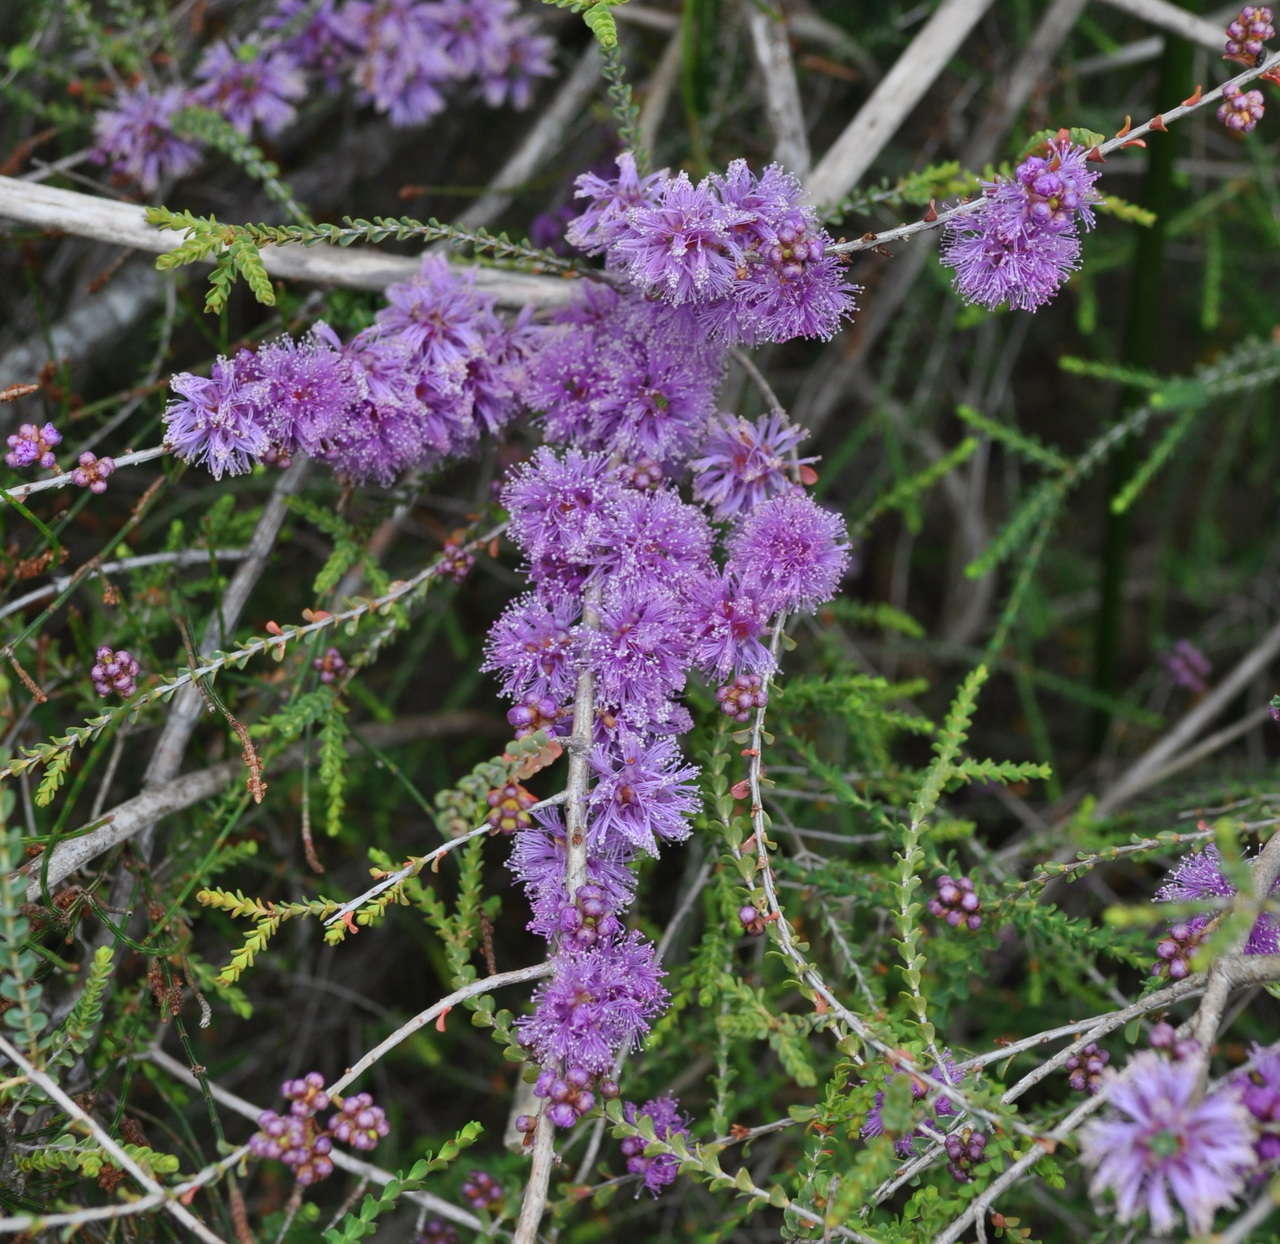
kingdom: Plantae
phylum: Tracheophyta
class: Magnoliopsida
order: Myrtales
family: Myrtaceae
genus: Melaleuca
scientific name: Melaleuca gibbosa
